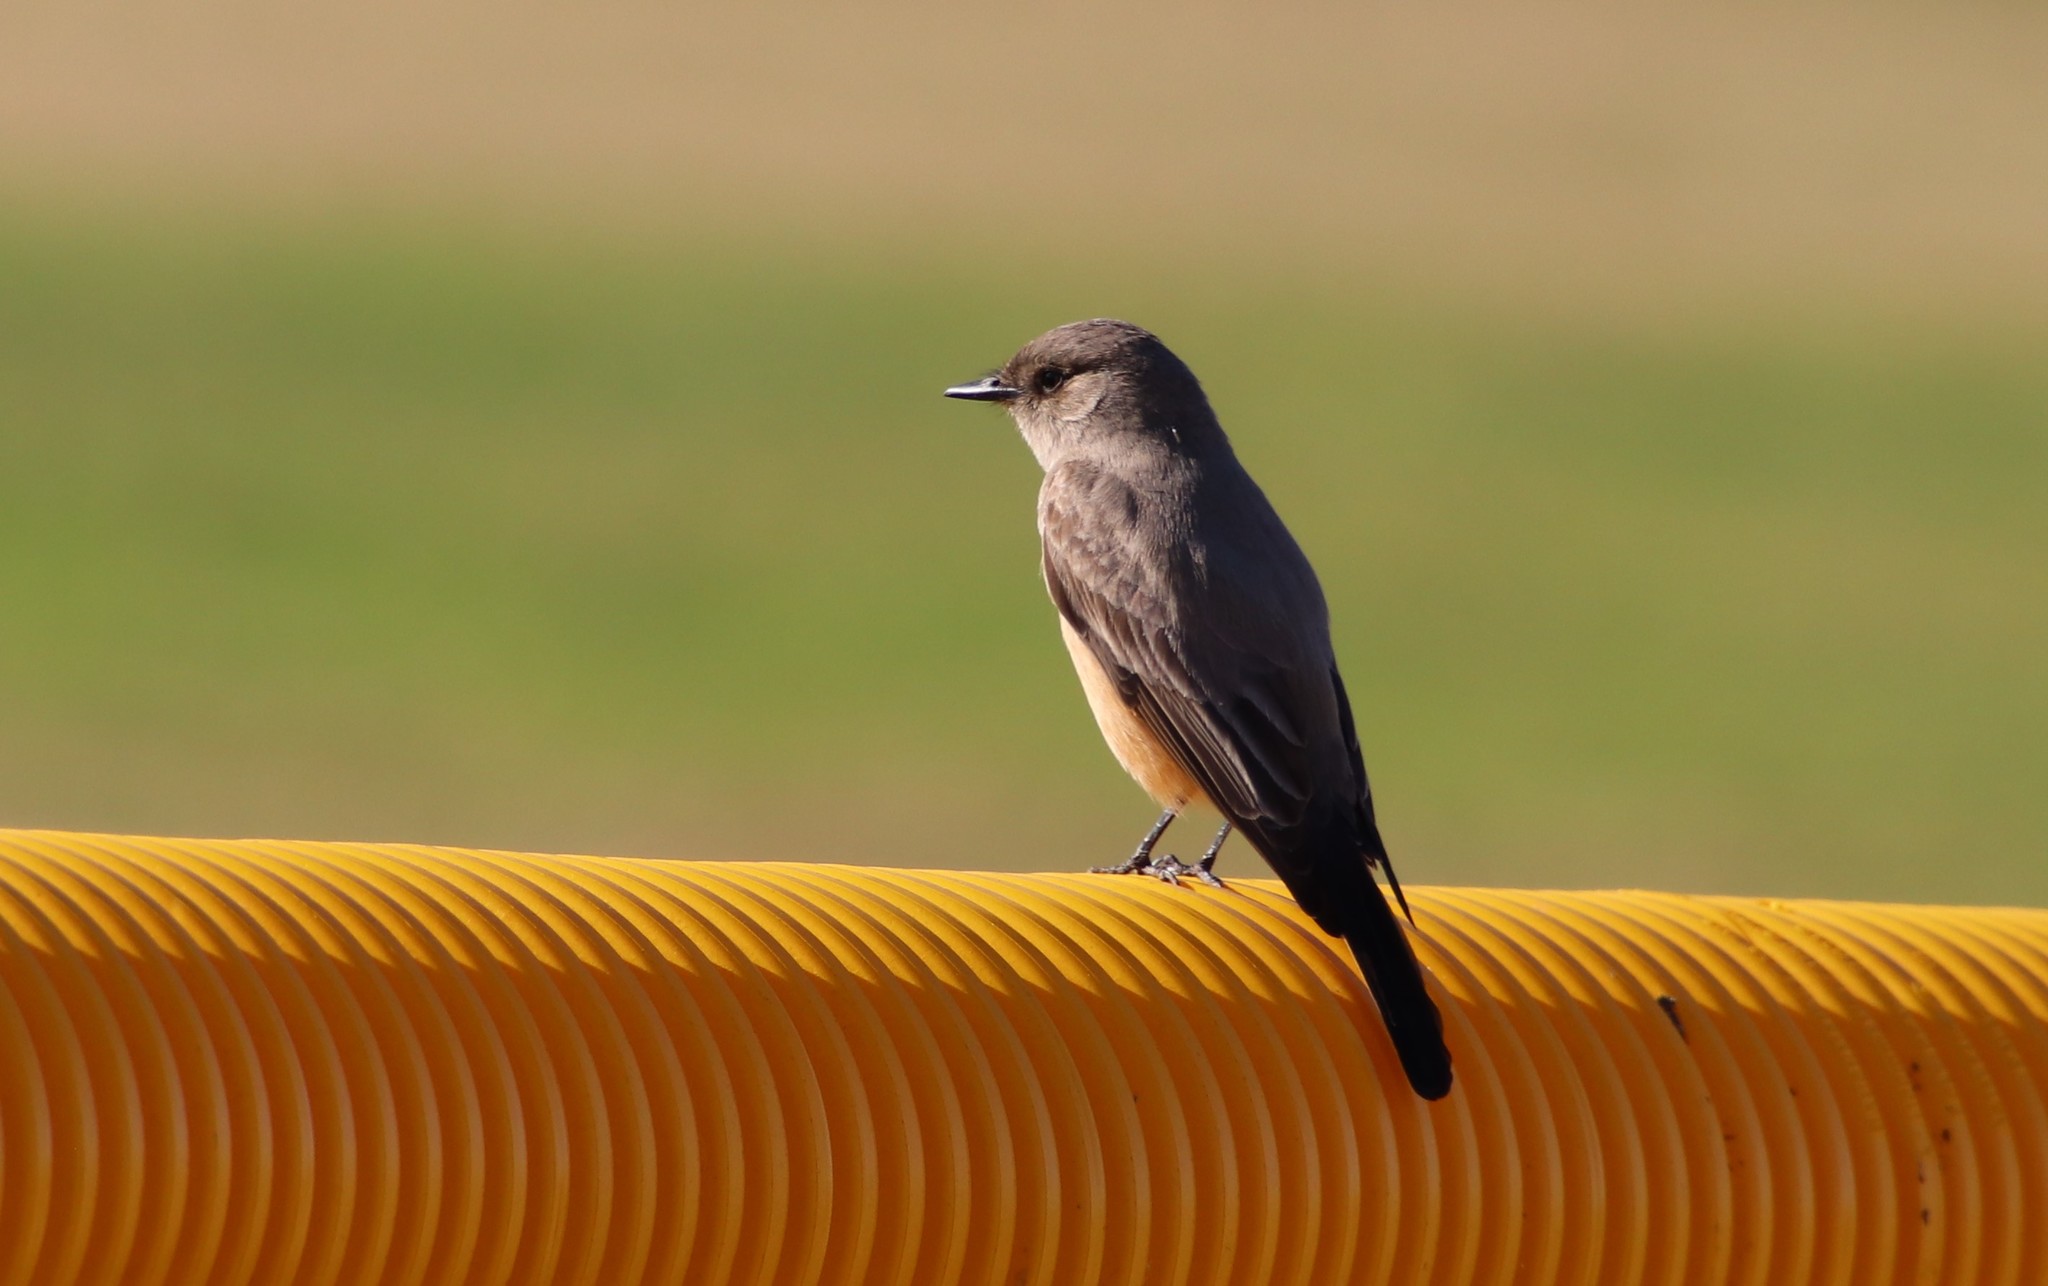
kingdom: Animalia
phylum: Chordata
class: Aves
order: Passeriformes
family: Tyrannidae
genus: Sayornis
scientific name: Sayornis saya
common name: Say's phoebe
